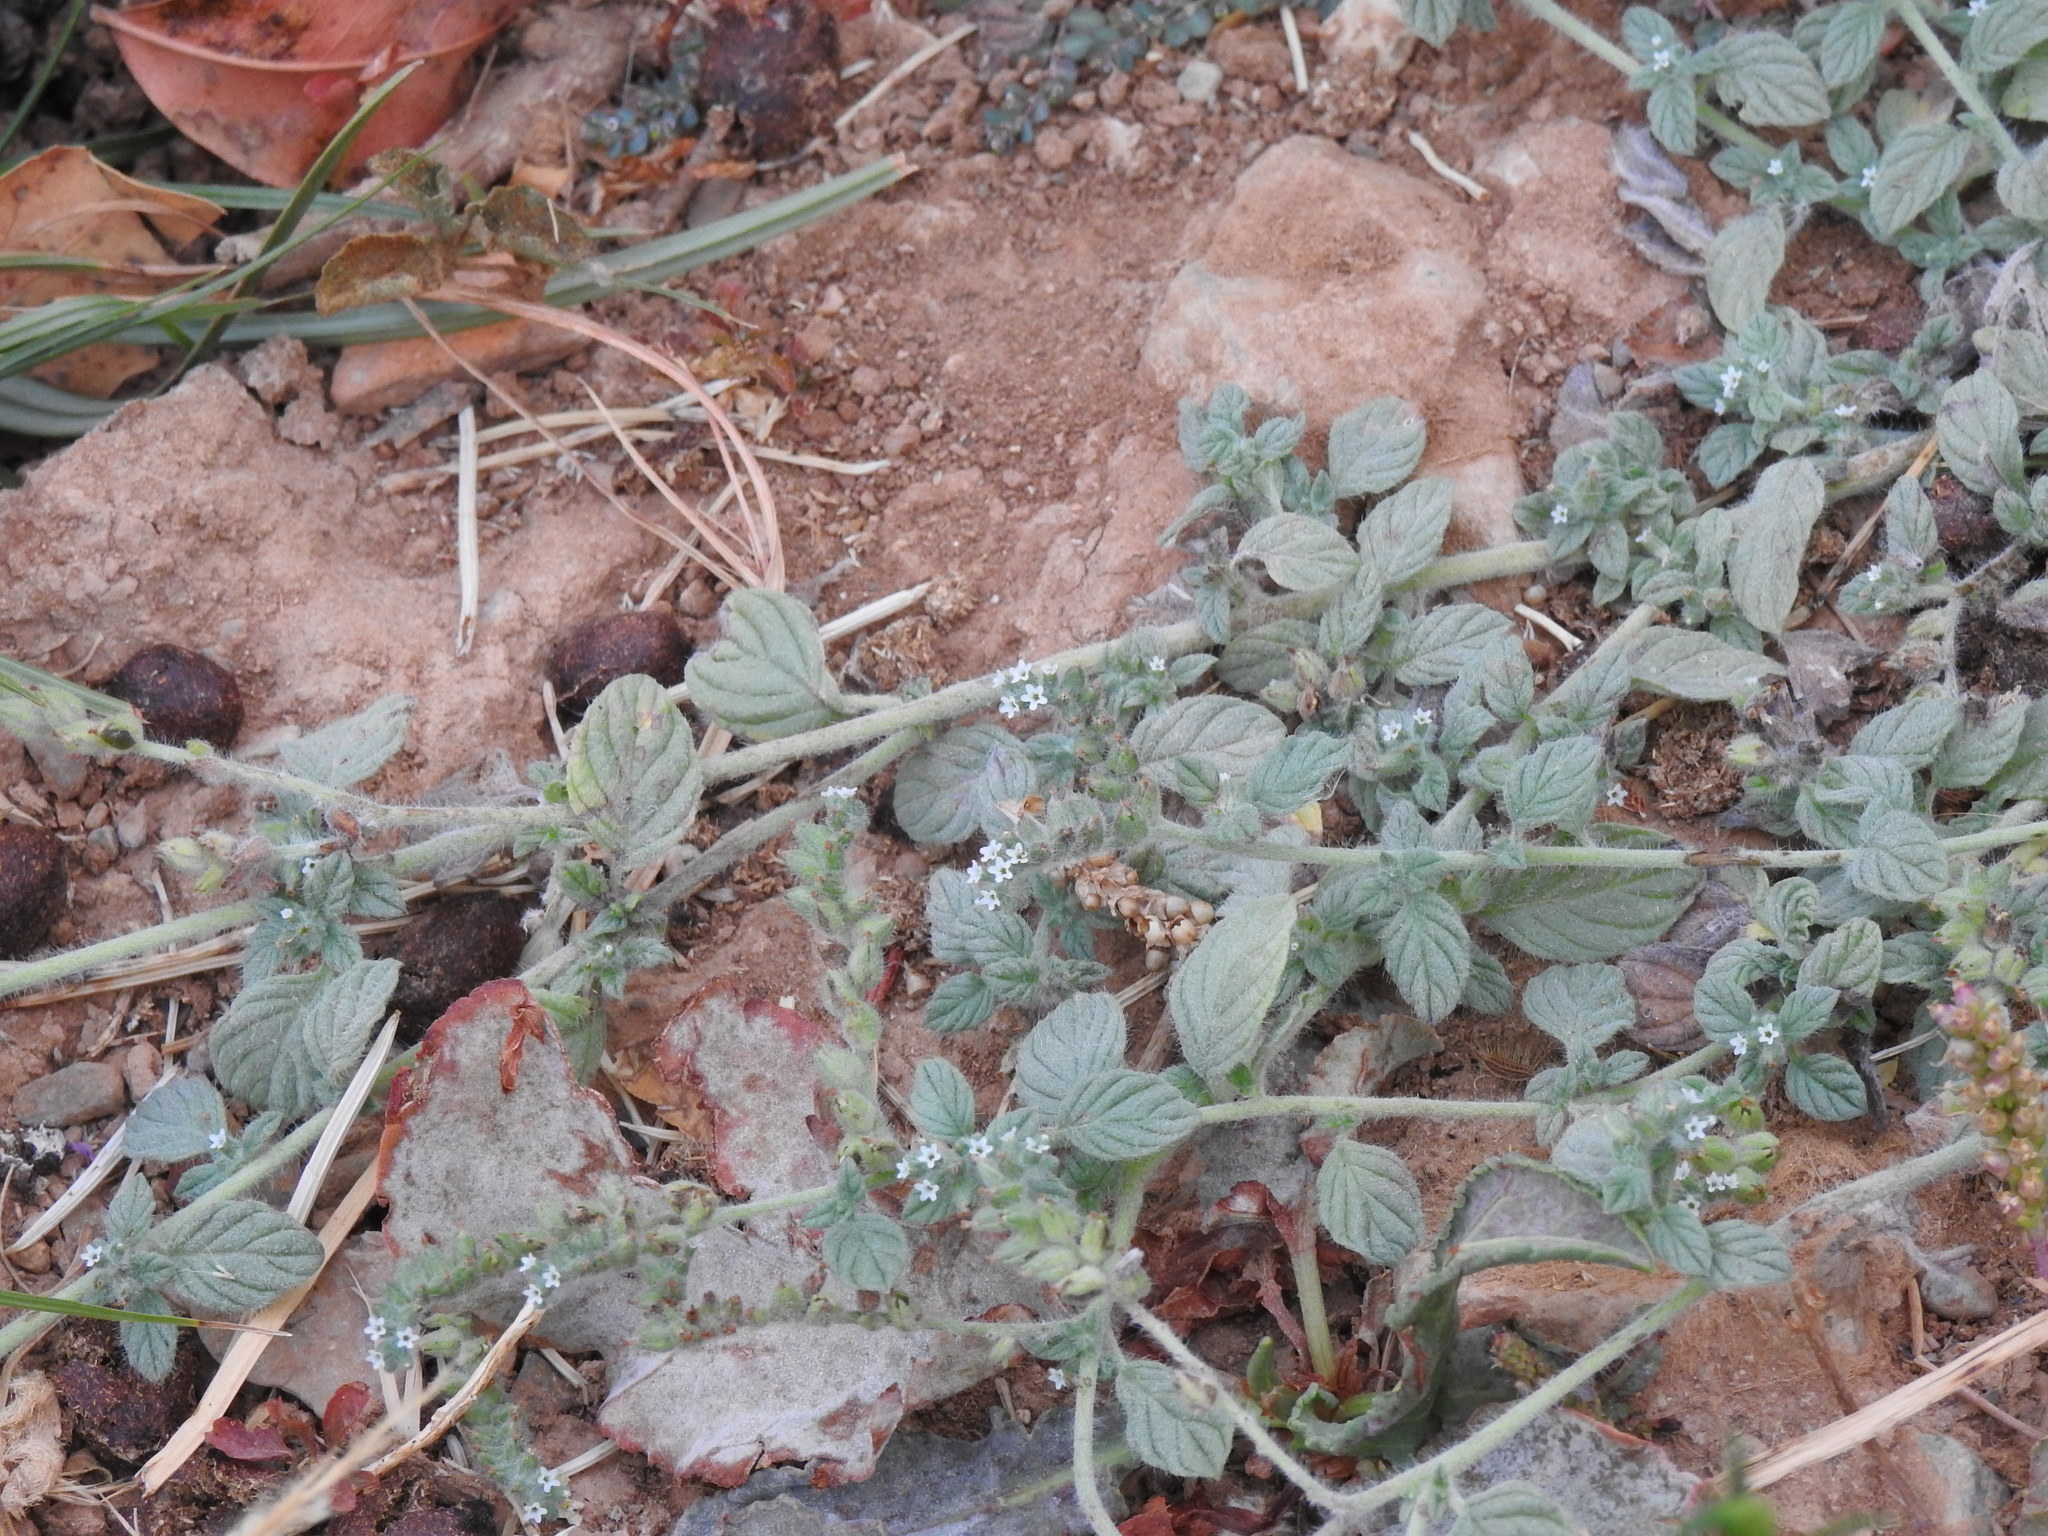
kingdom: Plantae
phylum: Tracheophyta
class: Magnoliopsida
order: Boraginales
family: Heliotropiaceae
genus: Heliotropium
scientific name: Heliotropium supinum
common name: Dwarf heliotrope
